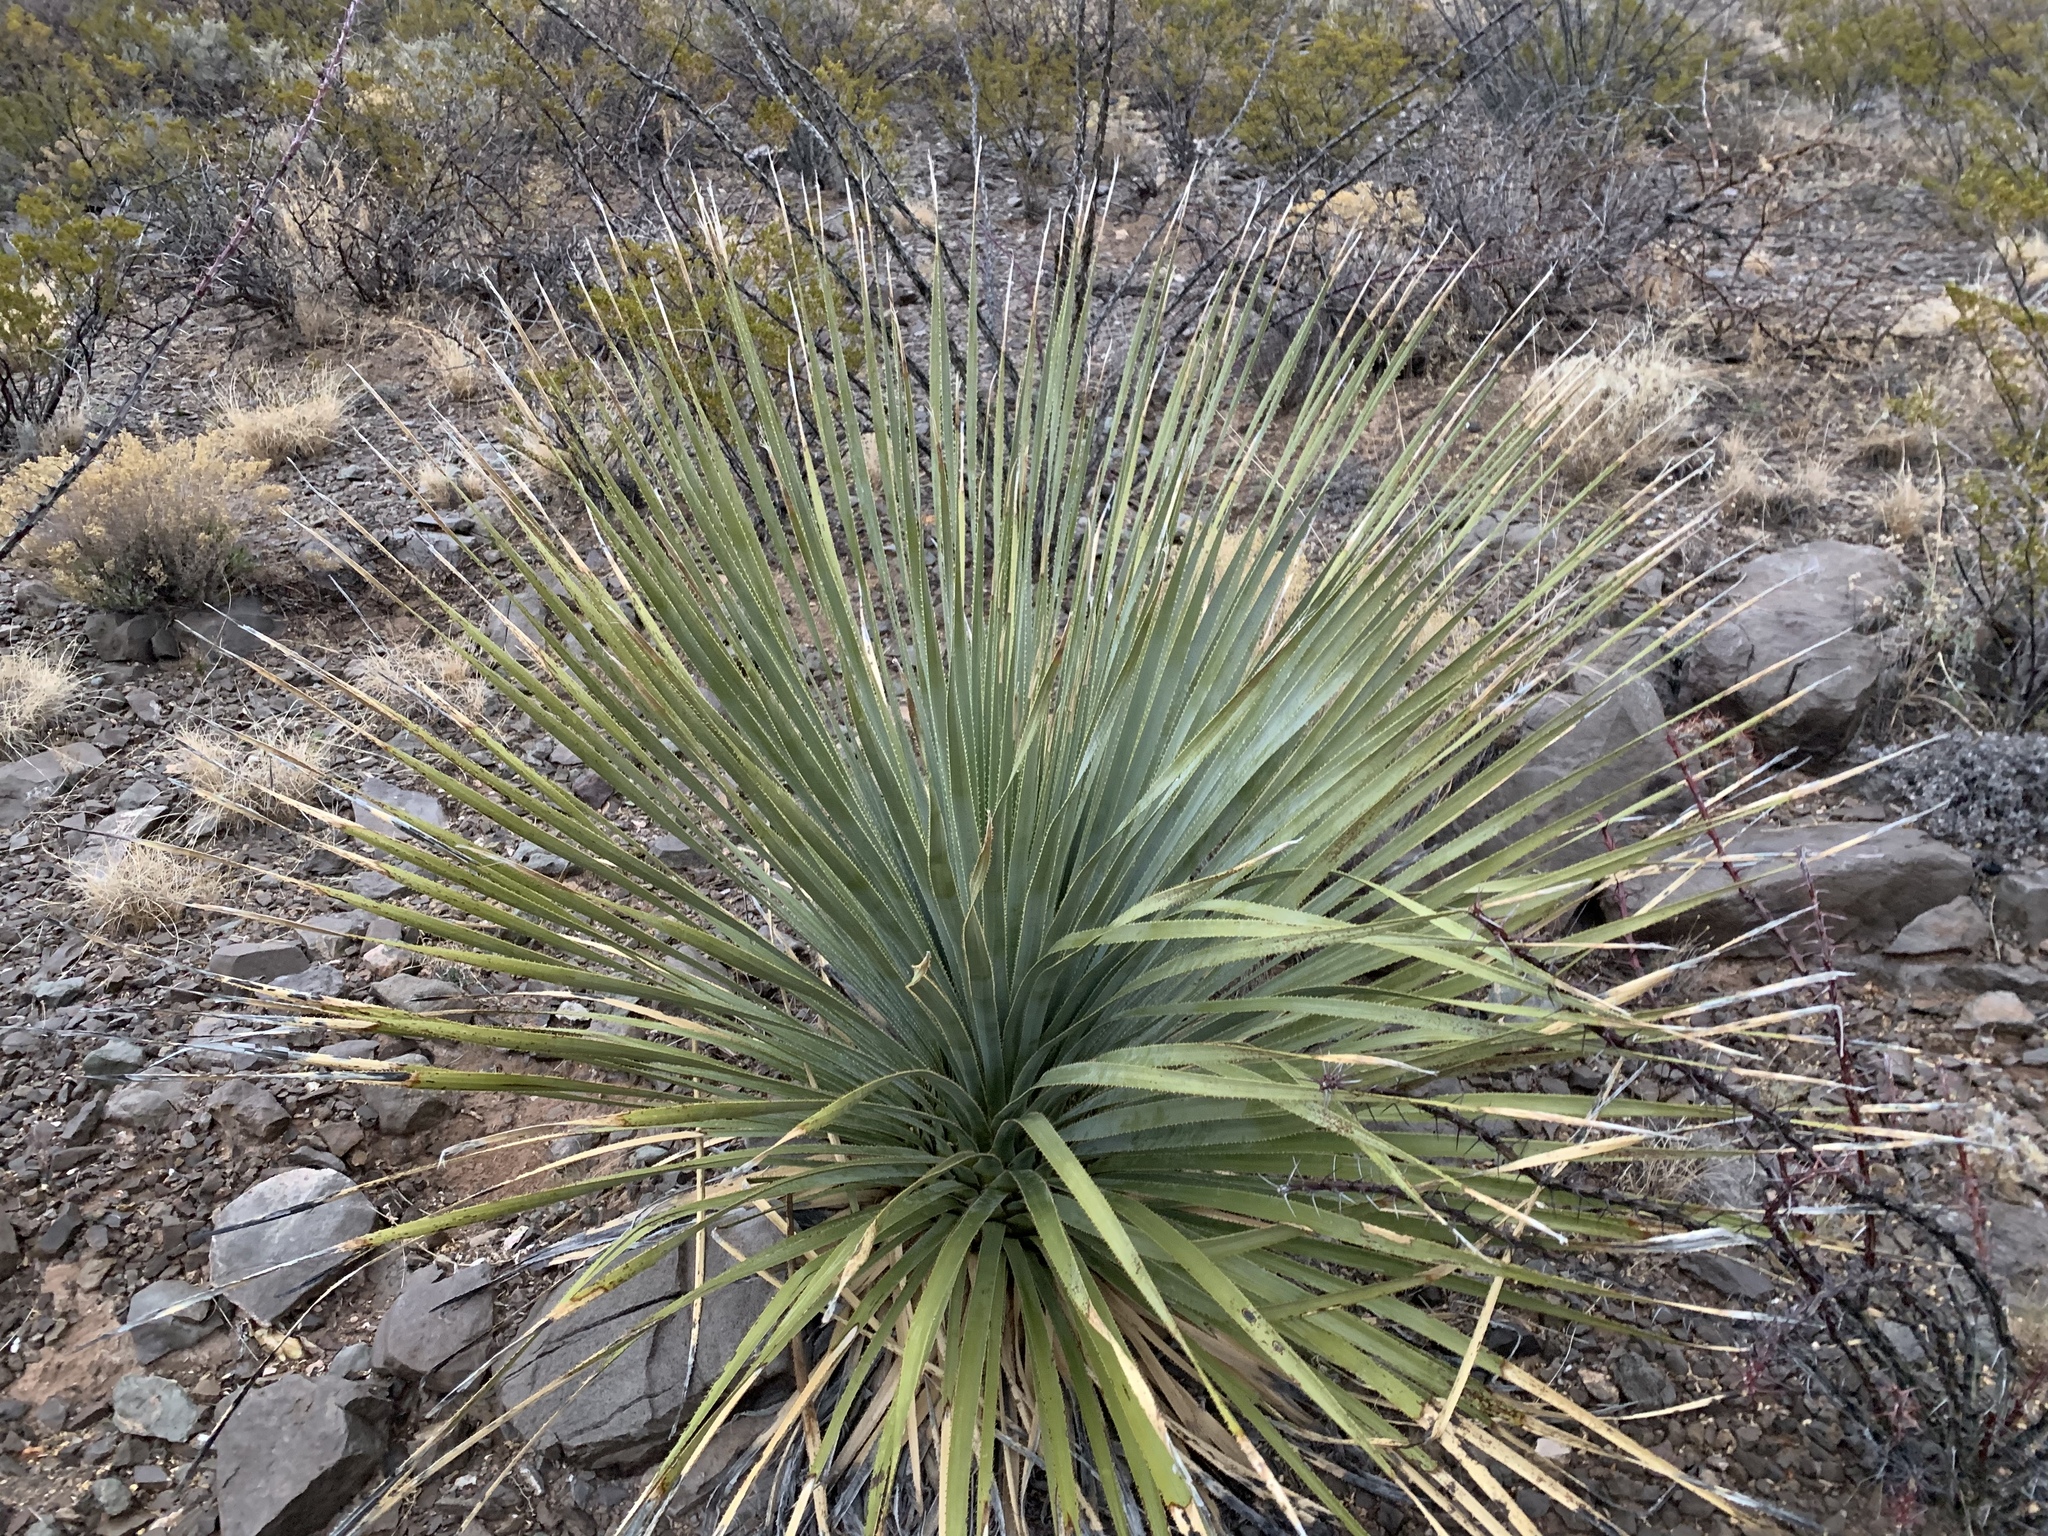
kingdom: Plantae
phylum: Tracheophyta
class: Liliopsida
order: Asparagales
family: Asparagaceae
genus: Dasylirion
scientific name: Dasylirion wheeleri
